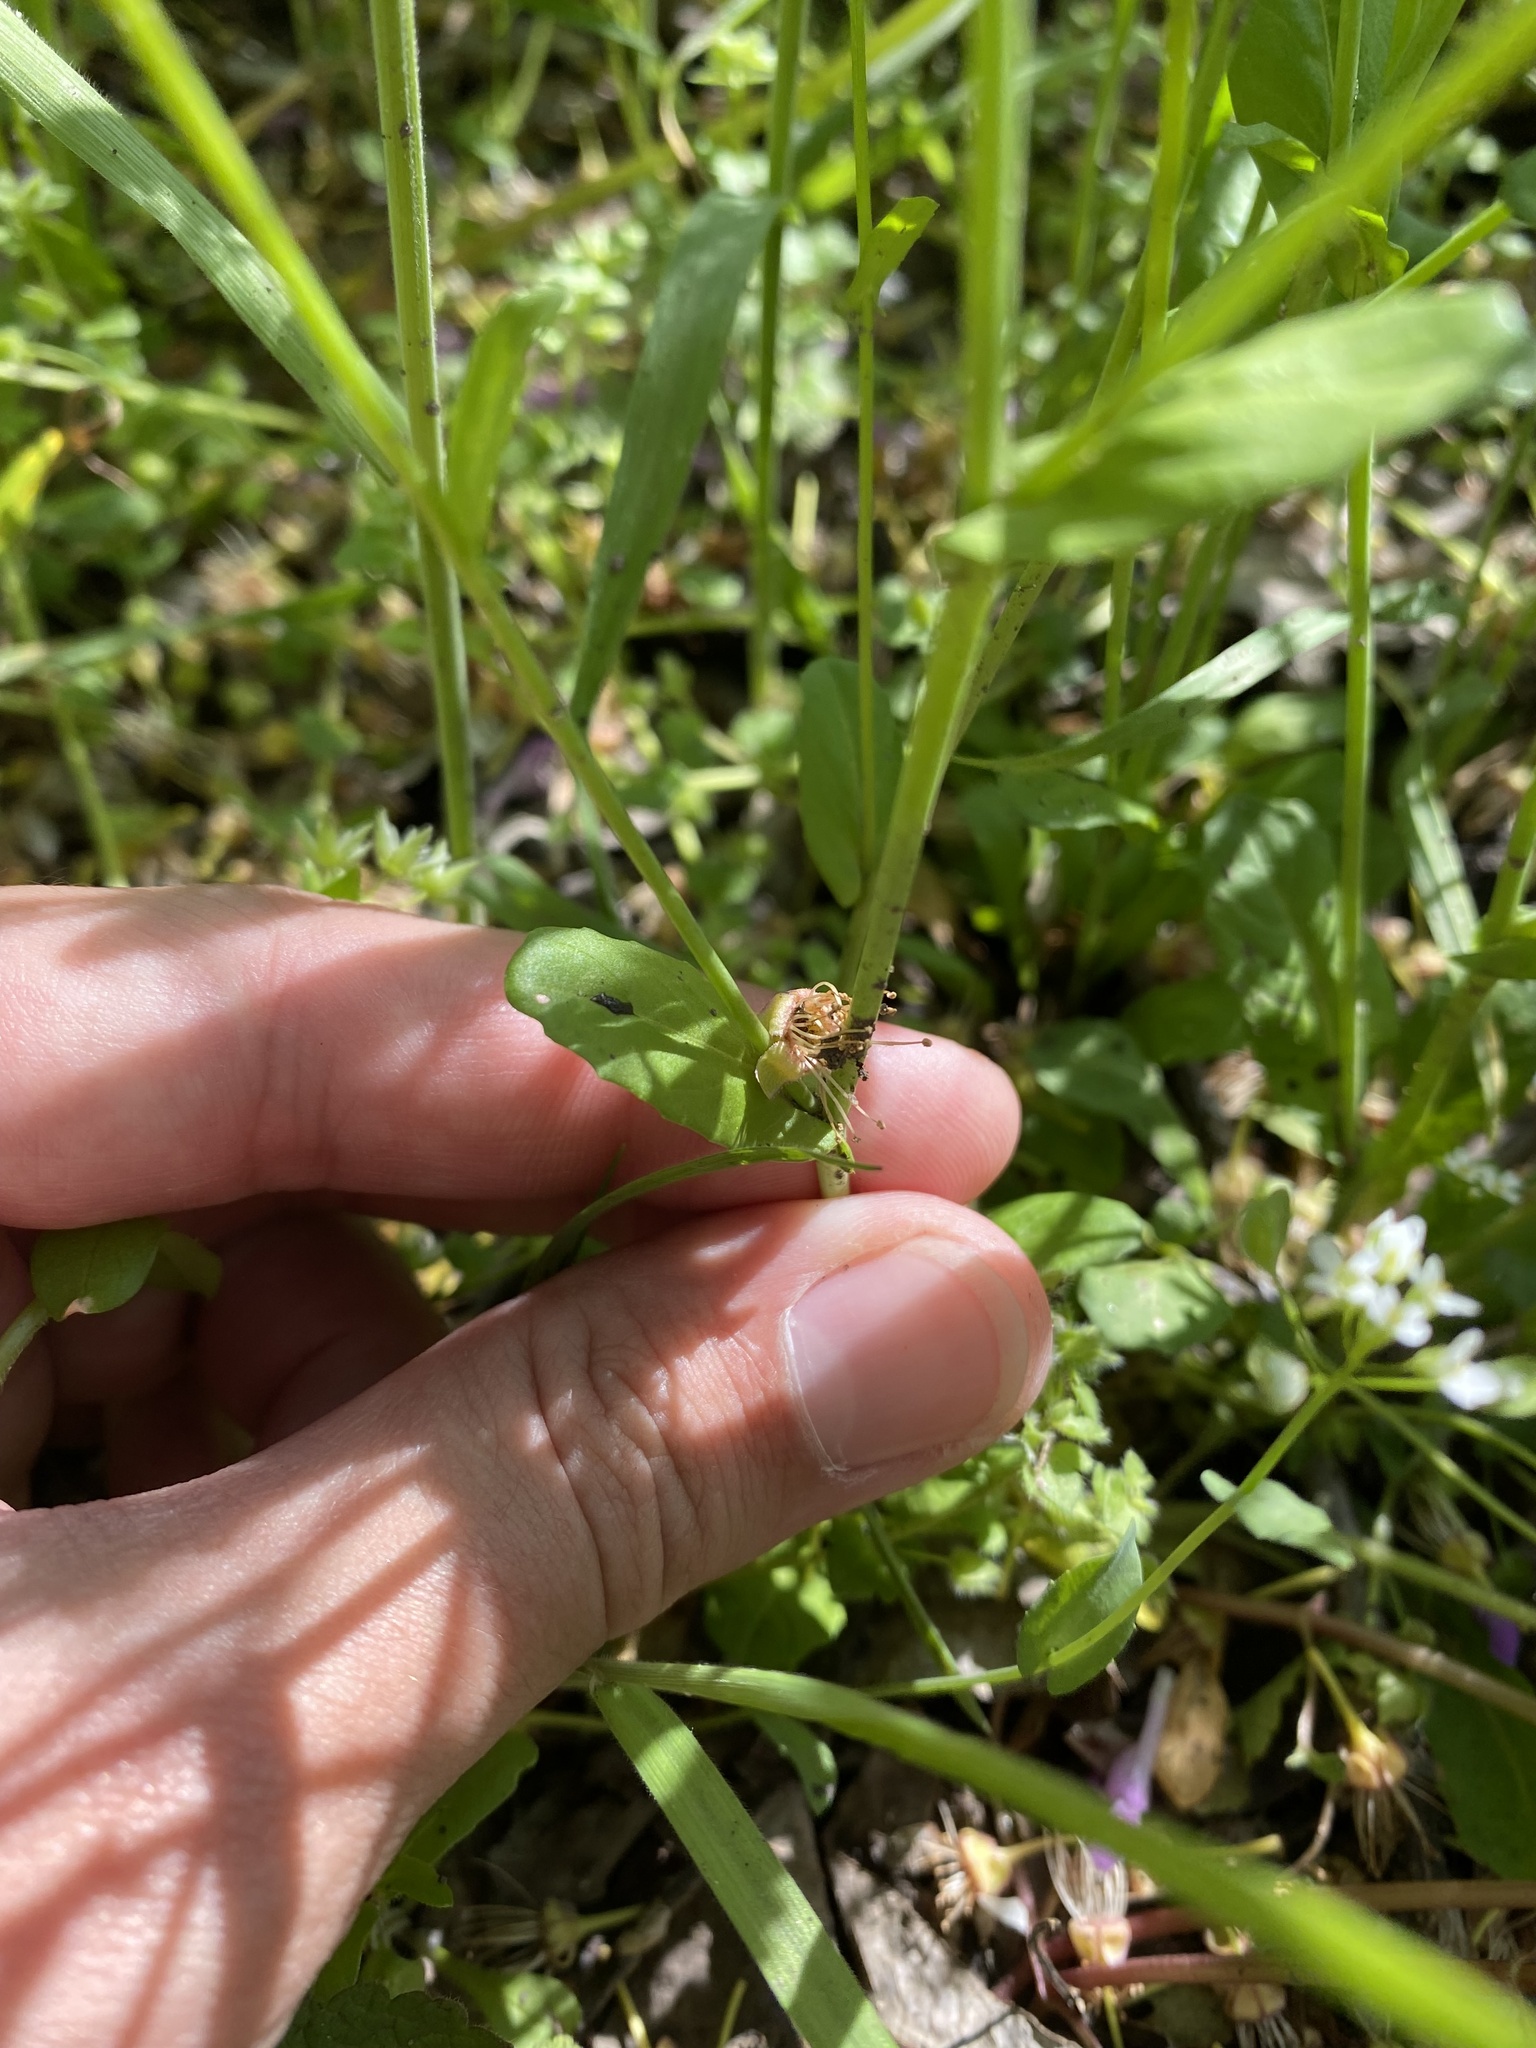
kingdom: Plantae
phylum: Tracheophyta
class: Magnoliopsida
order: Brassicales
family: Brassicaceae
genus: Calepina
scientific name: Calepina irregularis
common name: White ballmustard
